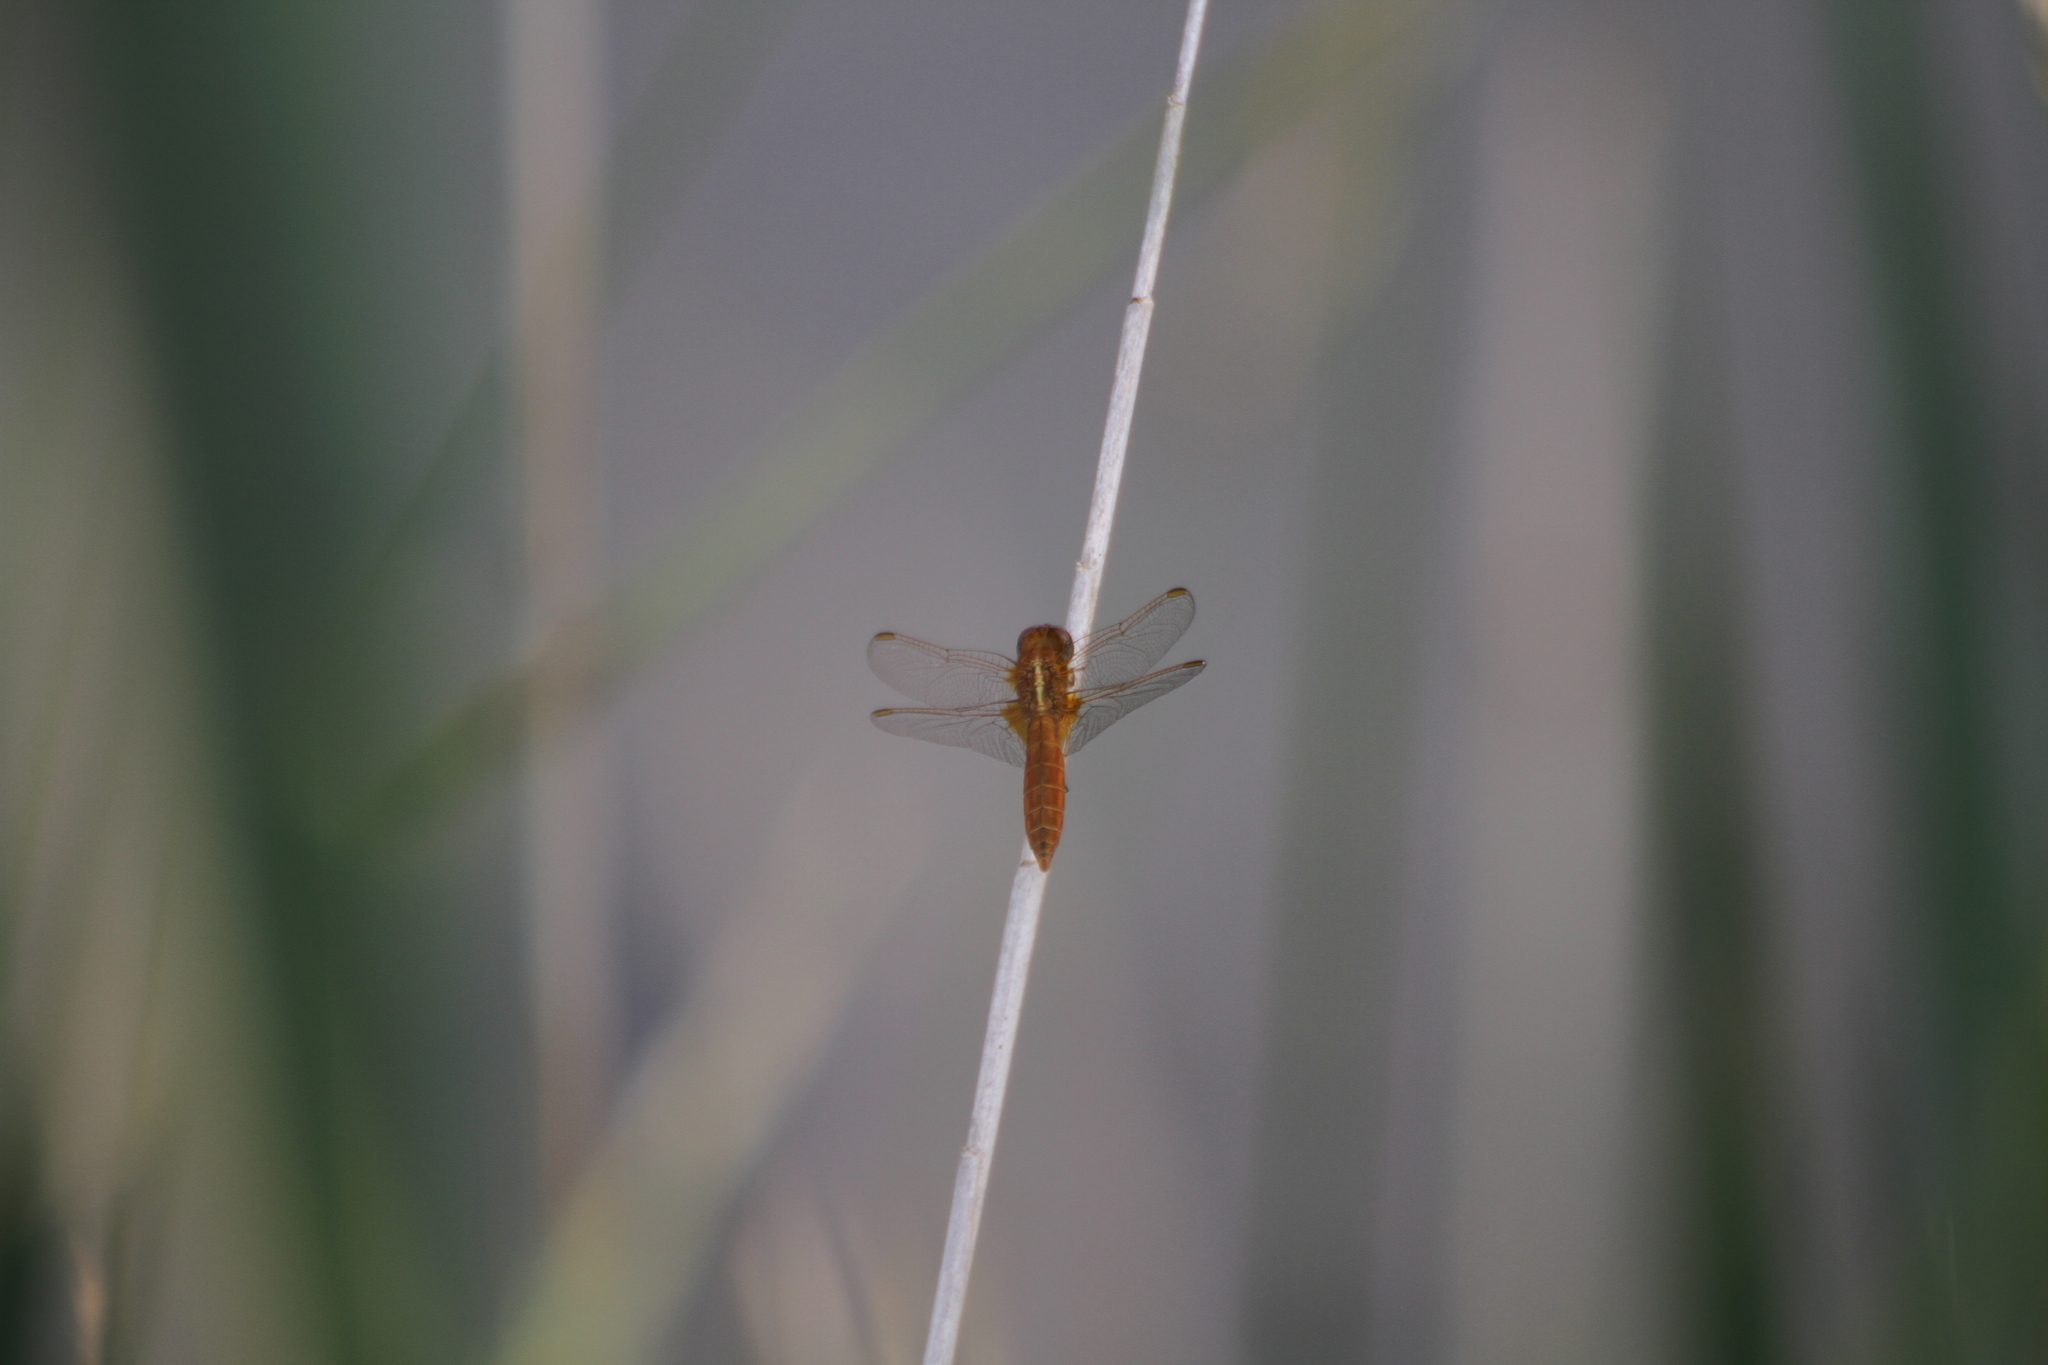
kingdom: Animalia
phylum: Arthropoda
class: Insecta
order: Odonata
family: Libellulidae
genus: Crocothemis
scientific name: Crocothemis erythraea
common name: Scarlet dragonfly
